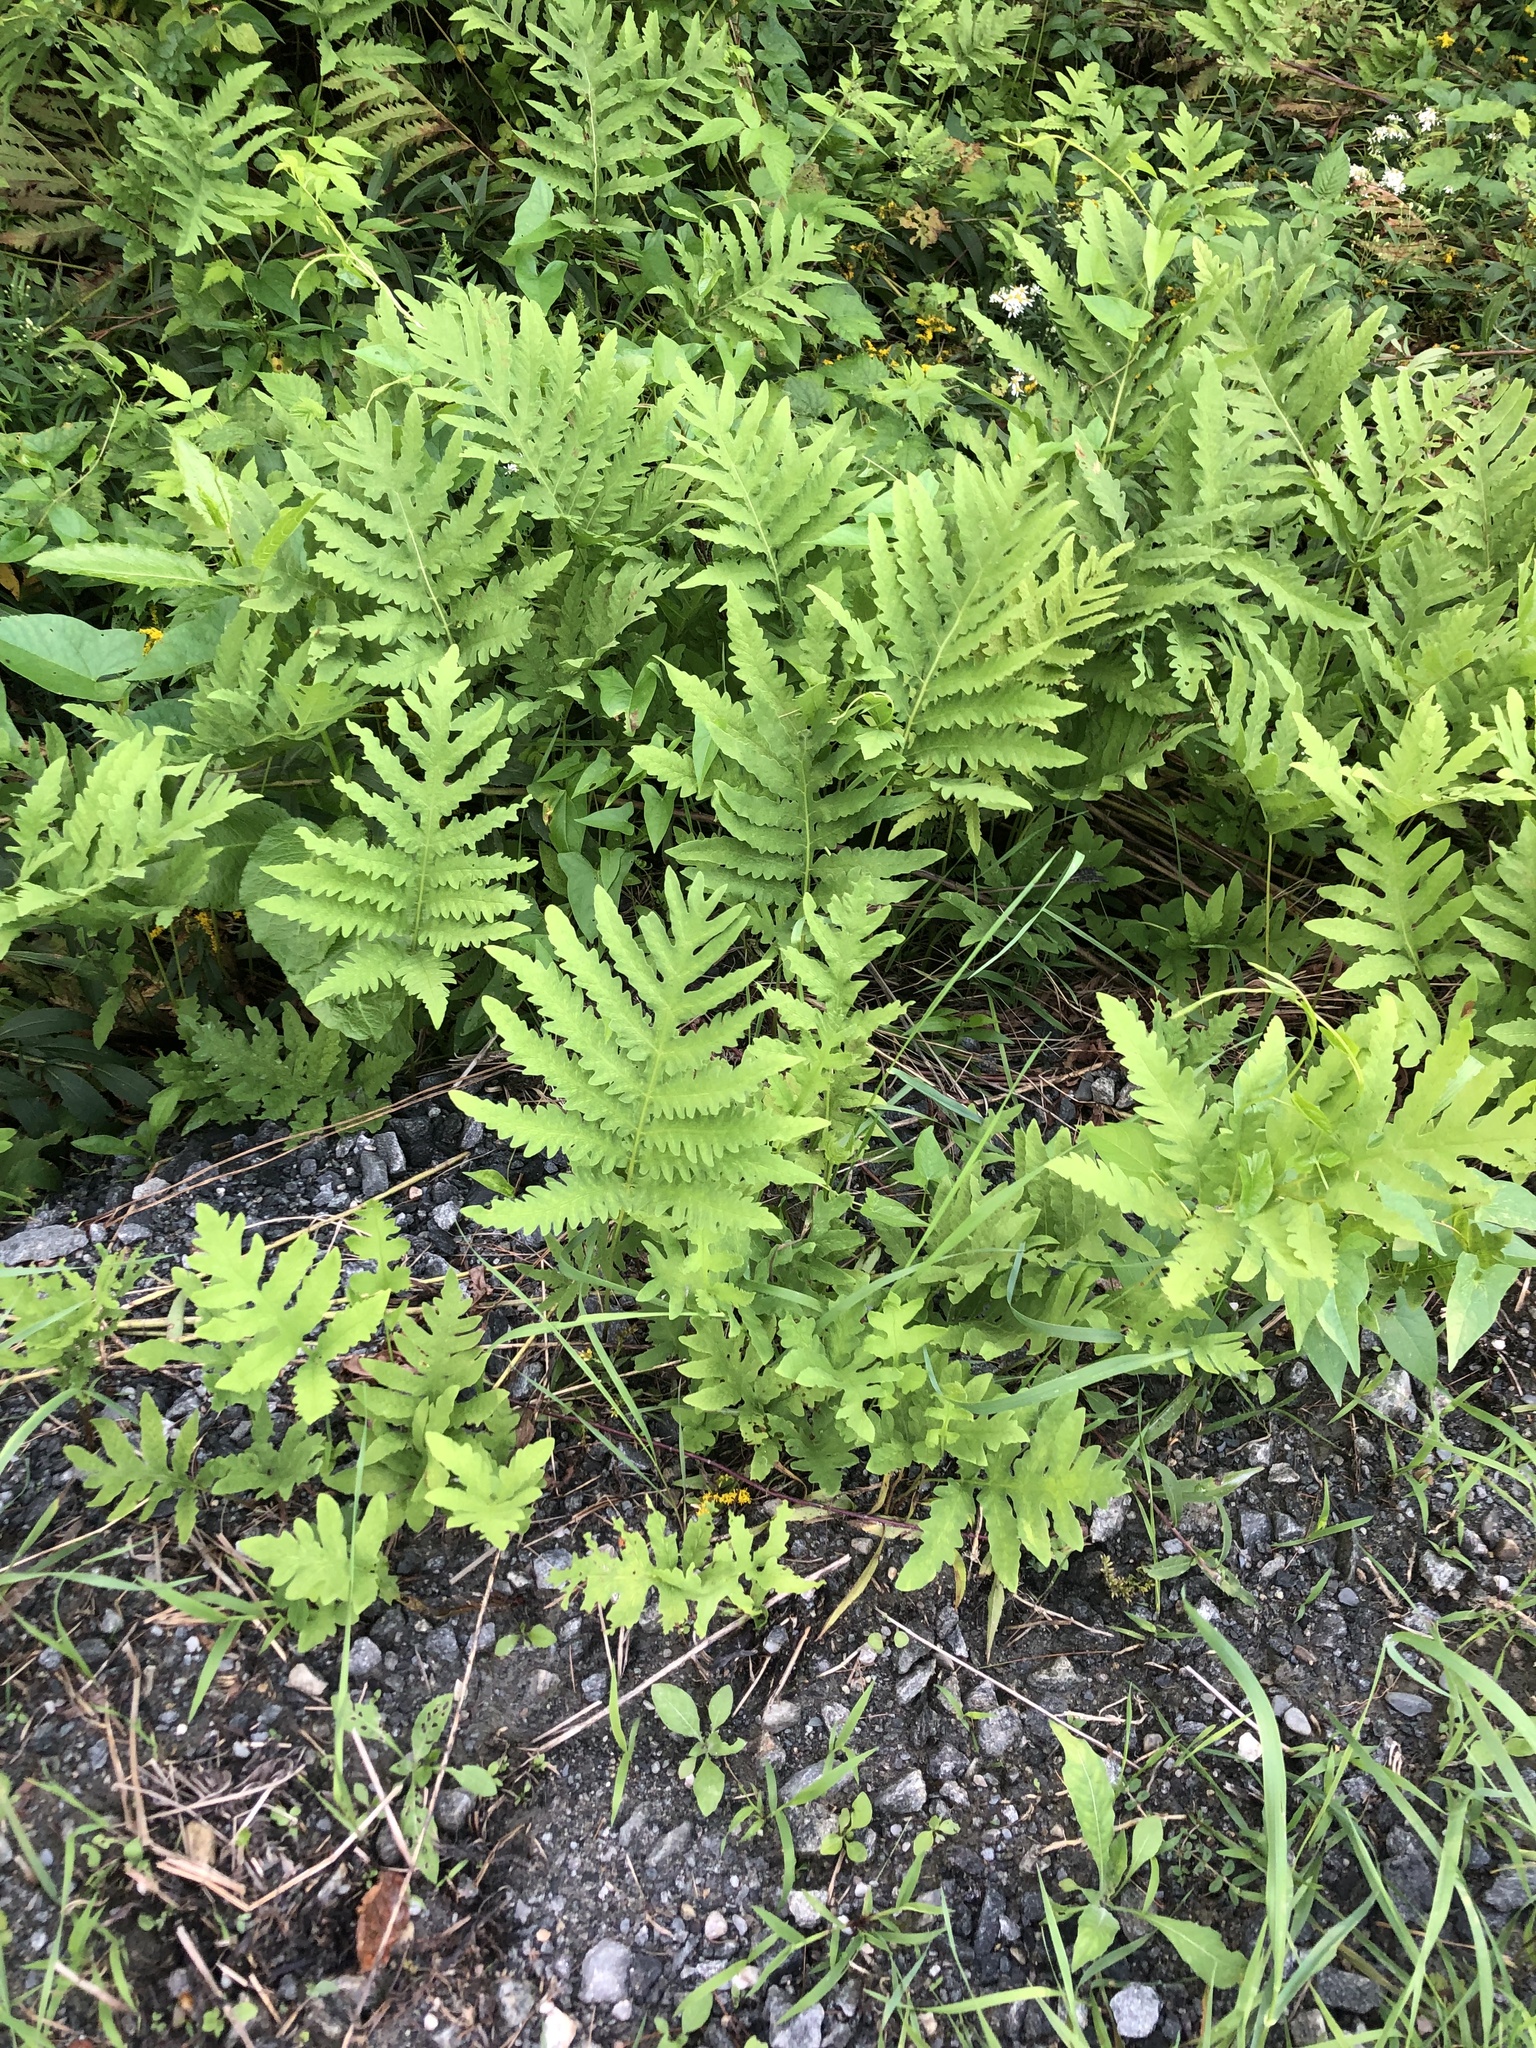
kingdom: Plantae
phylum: Tracheophyta
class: Polypodiopsida
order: Polypodiales
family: Onocleaceae
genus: Onoclea
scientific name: Onoclea sensibilis
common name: Sensitive fern
